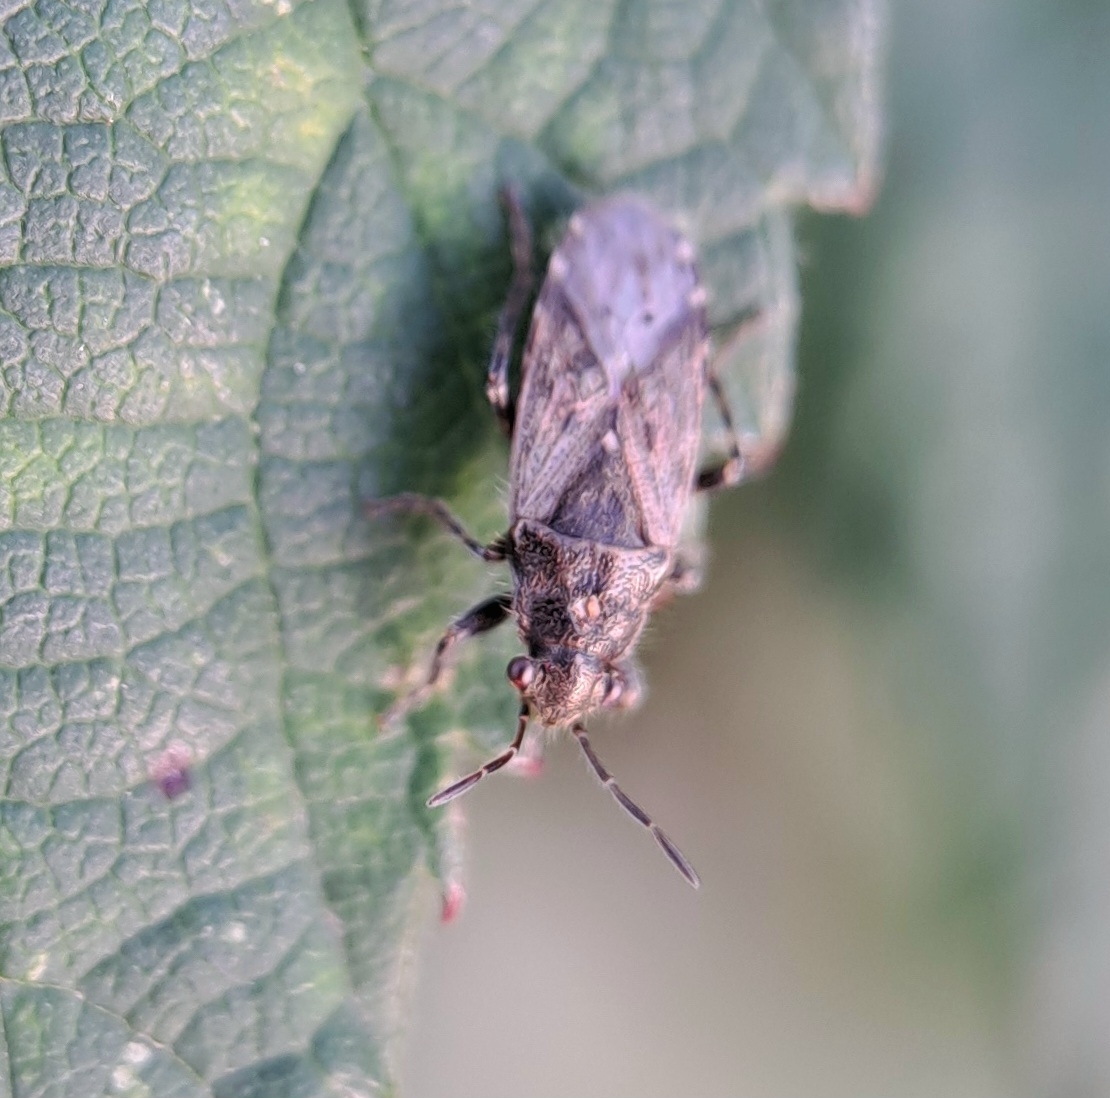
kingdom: Animalia
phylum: Arthropoda
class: Insecta
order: Hemiptera
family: Heterogastridae
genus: Heterogaster
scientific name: Heterogaster urticae
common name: Seed bug
